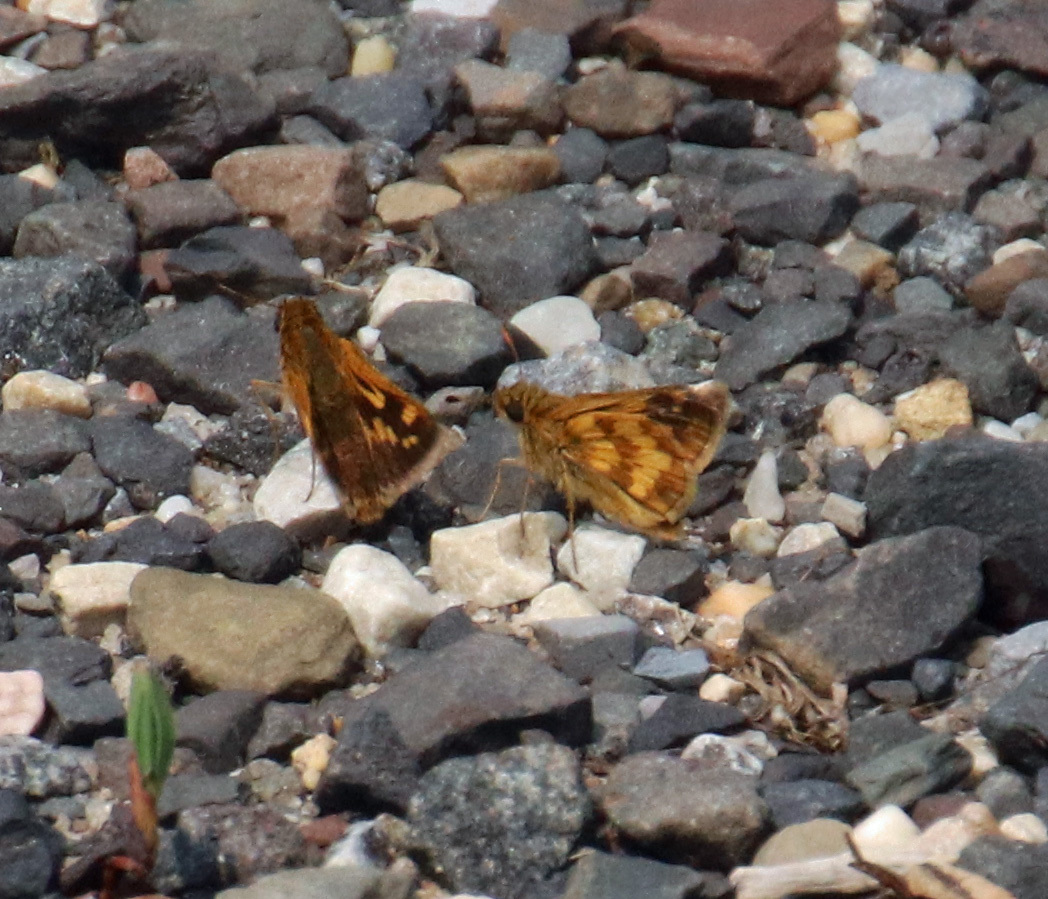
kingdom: Animalia
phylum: Arthropoda
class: Insecta
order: Lepidoptera
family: Hesperiidae
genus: Polites
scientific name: Polites coras
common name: Peck's skipper
